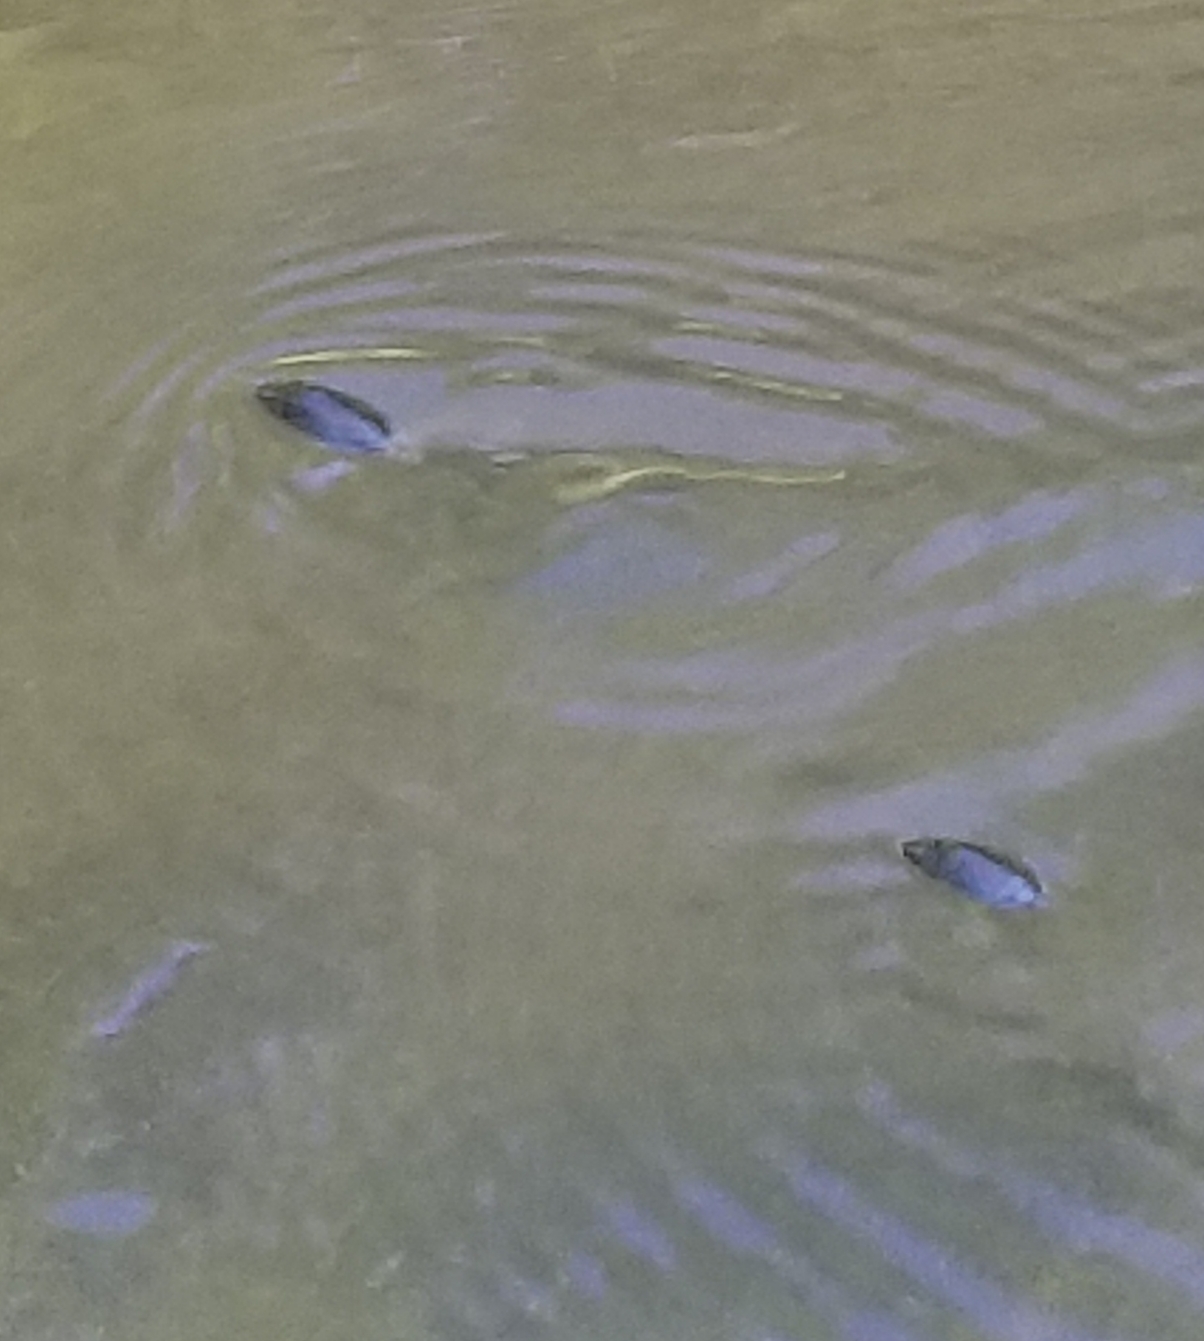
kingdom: Animalia
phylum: Arthropoda
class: Insecta
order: Coleoptera
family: Gyrinidae
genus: Dineutus
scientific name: Dineutus
